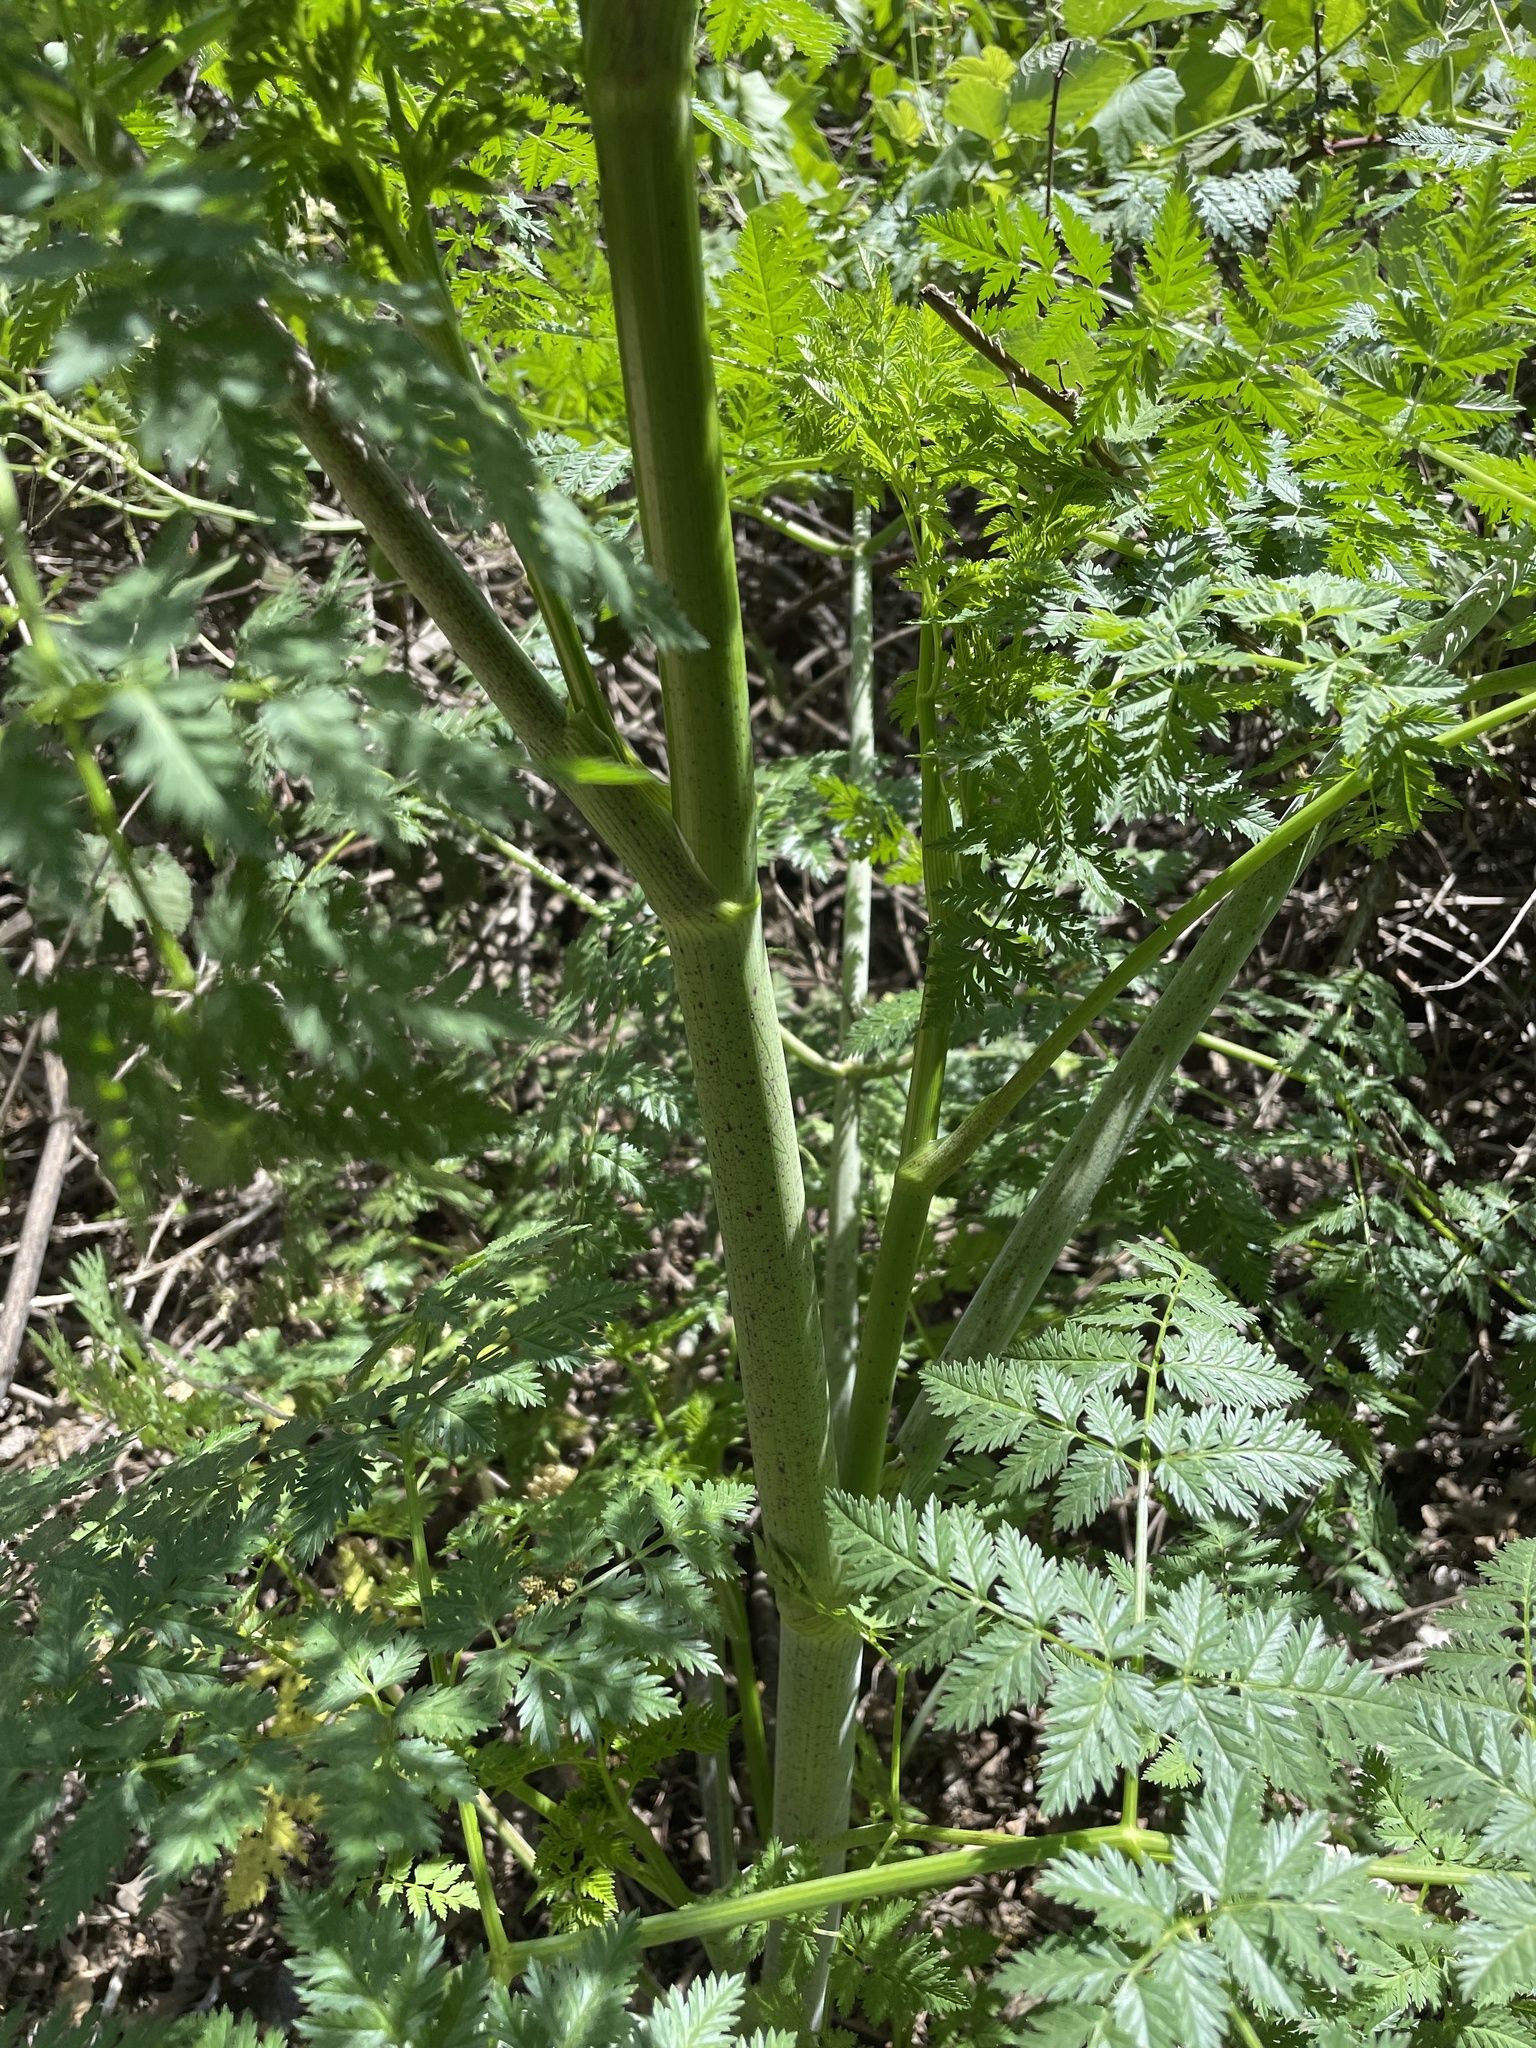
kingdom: Plantae
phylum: Tracheophyta
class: Magnoliopsida
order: Apiales
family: Apiaceae
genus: Conium
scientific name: Conium maculatum
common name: Hemlock
